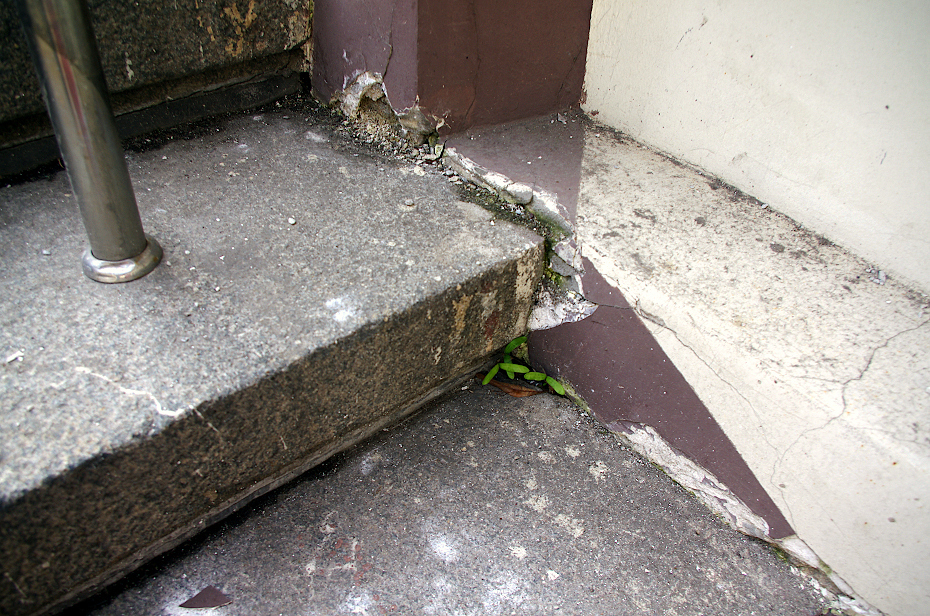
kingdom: Plantae
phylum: Tracheophyta
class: Magnoliopsida
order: Sapindales
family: Sapindaceae
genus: Acer
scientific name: Acer platanoides
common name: Norway maple
